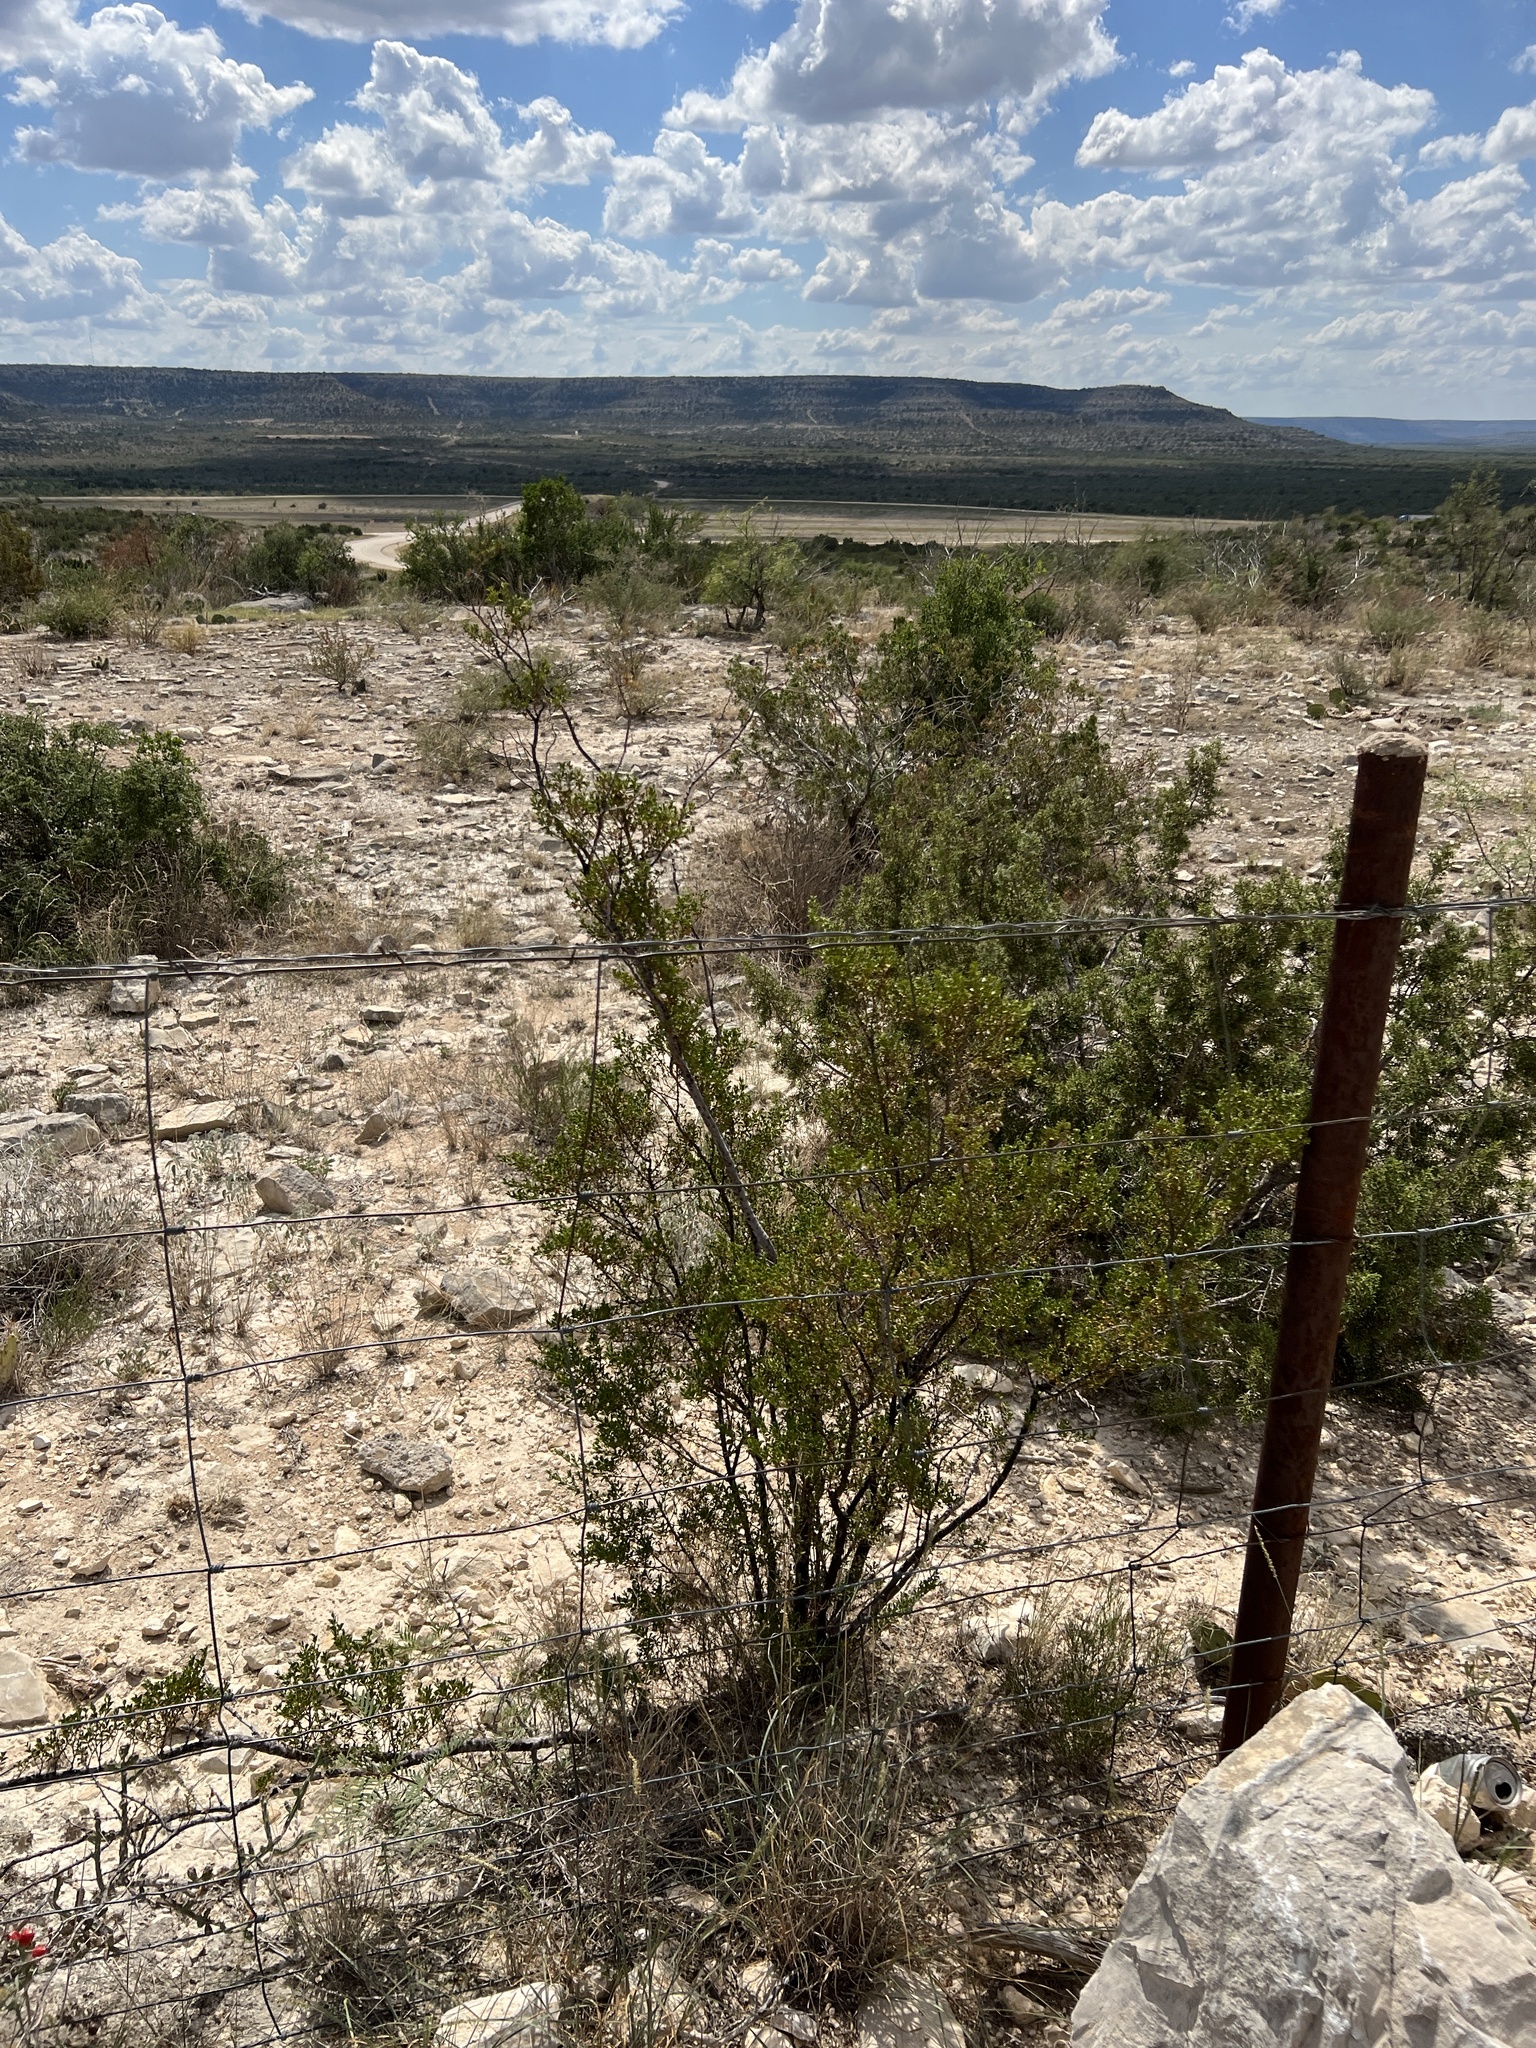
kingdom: Plantae
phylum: Tracheophyta
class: Magnoliopsida
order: Zygophyllales
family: Zygophyllaceae
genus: Larrea
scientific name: Larrea tridentata
